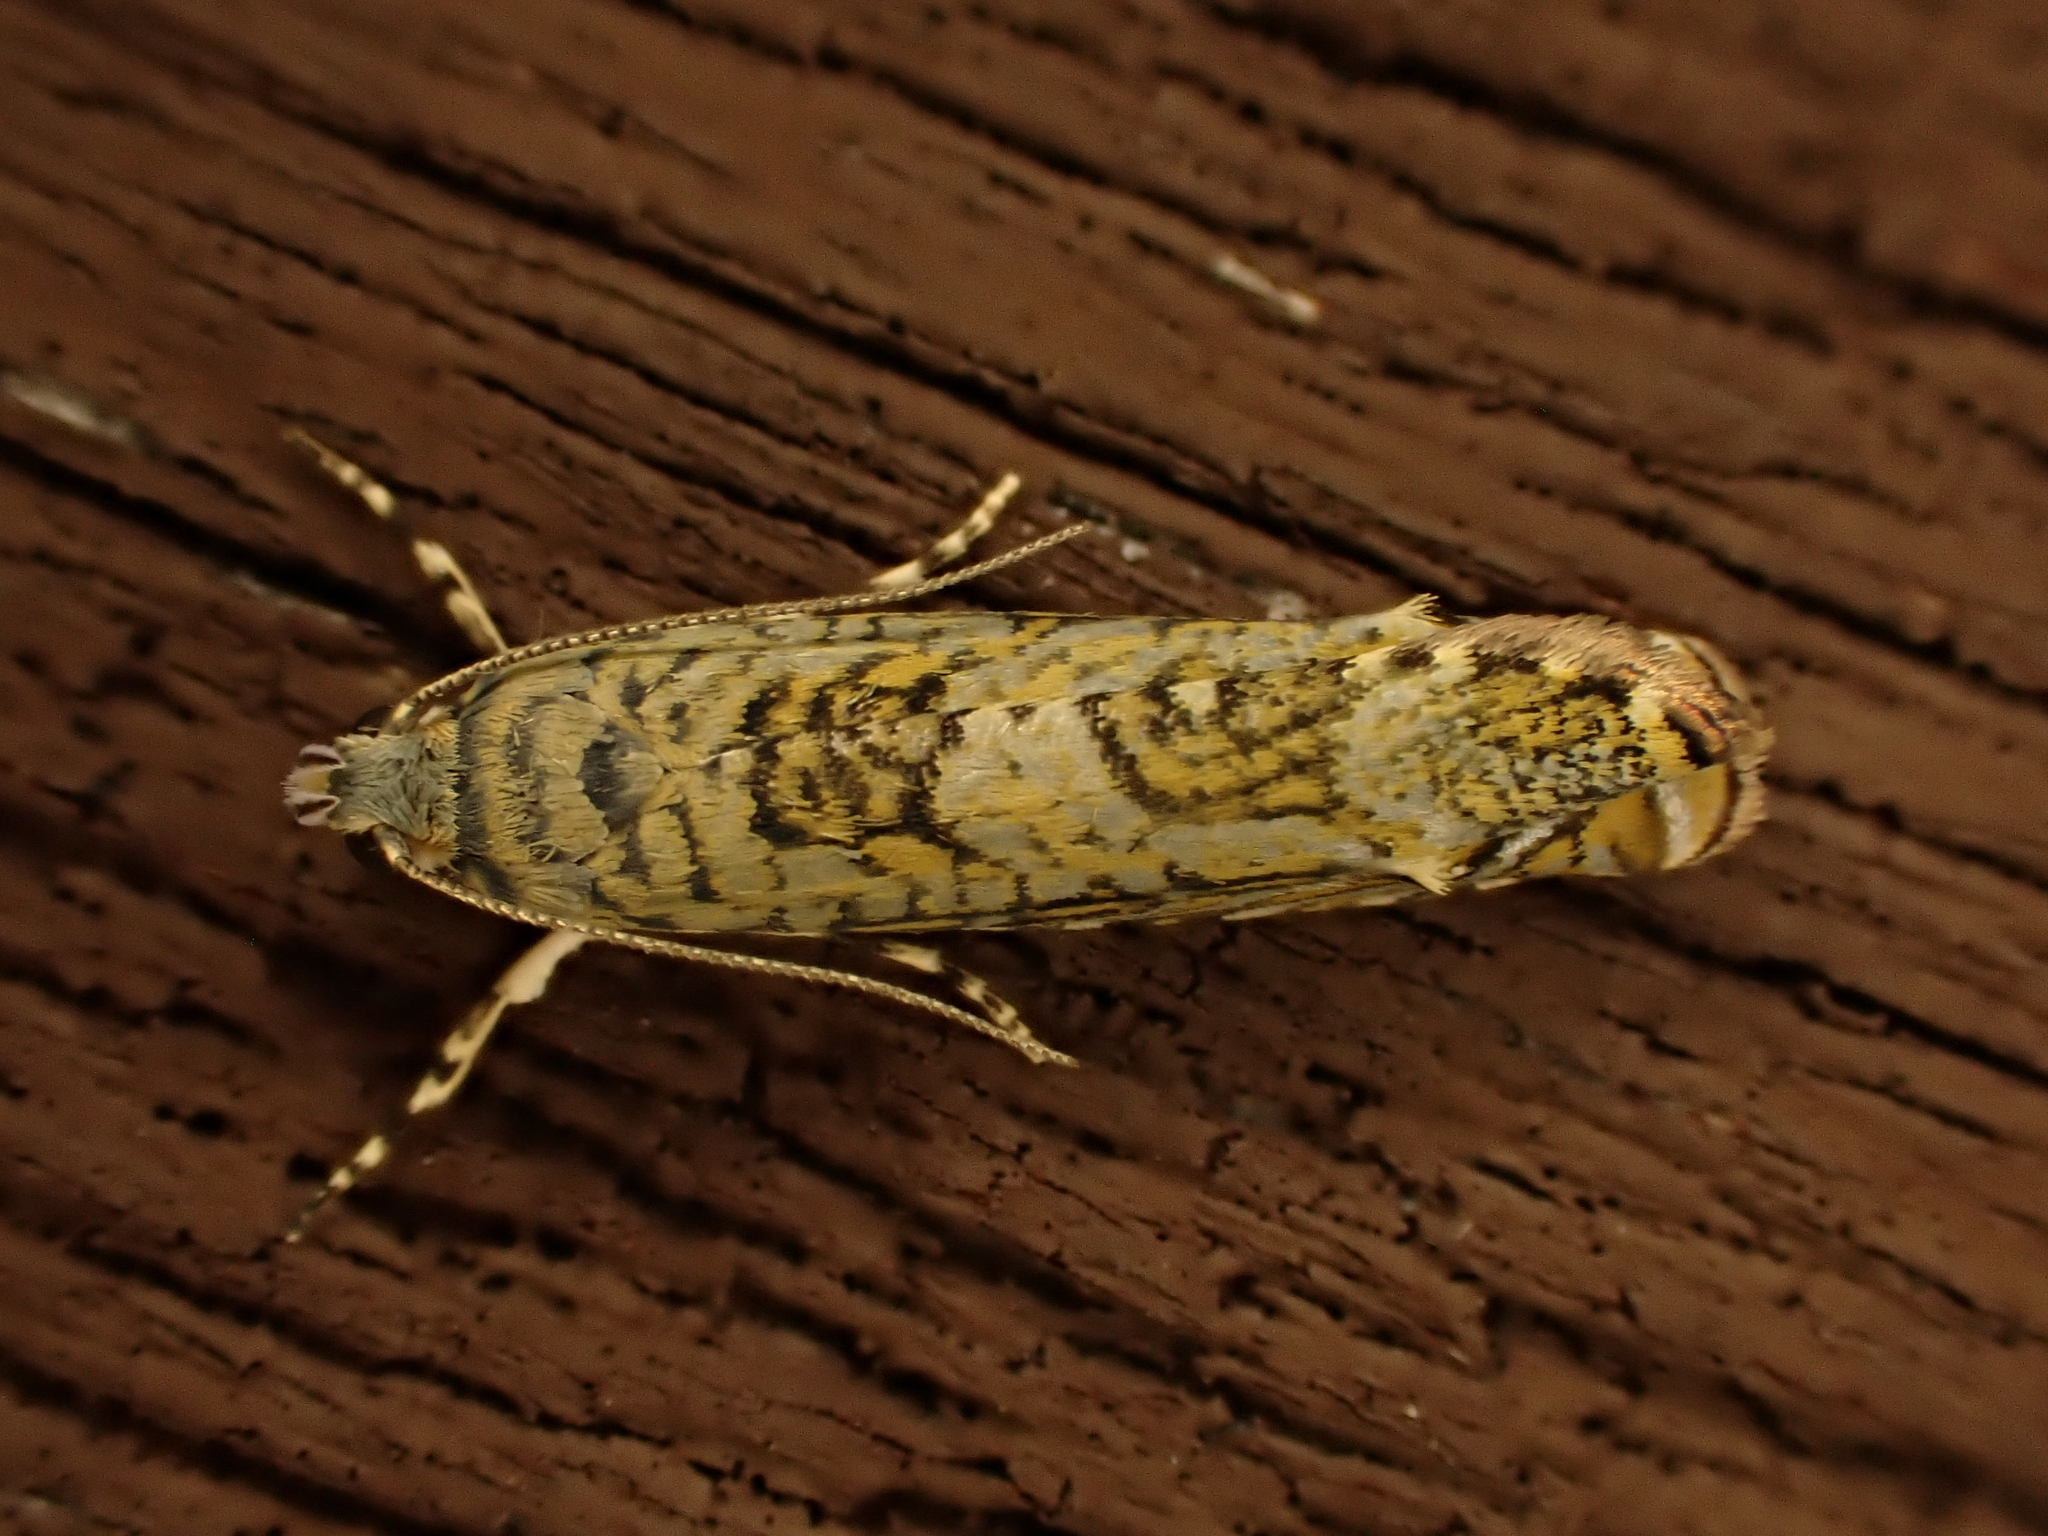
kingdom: Animalia
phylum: Arthropoda
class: Insecta
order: Lepidoptera
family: Plutellidae
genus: Doxophyrtis
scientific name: Doxophyrtis hydrocosma
